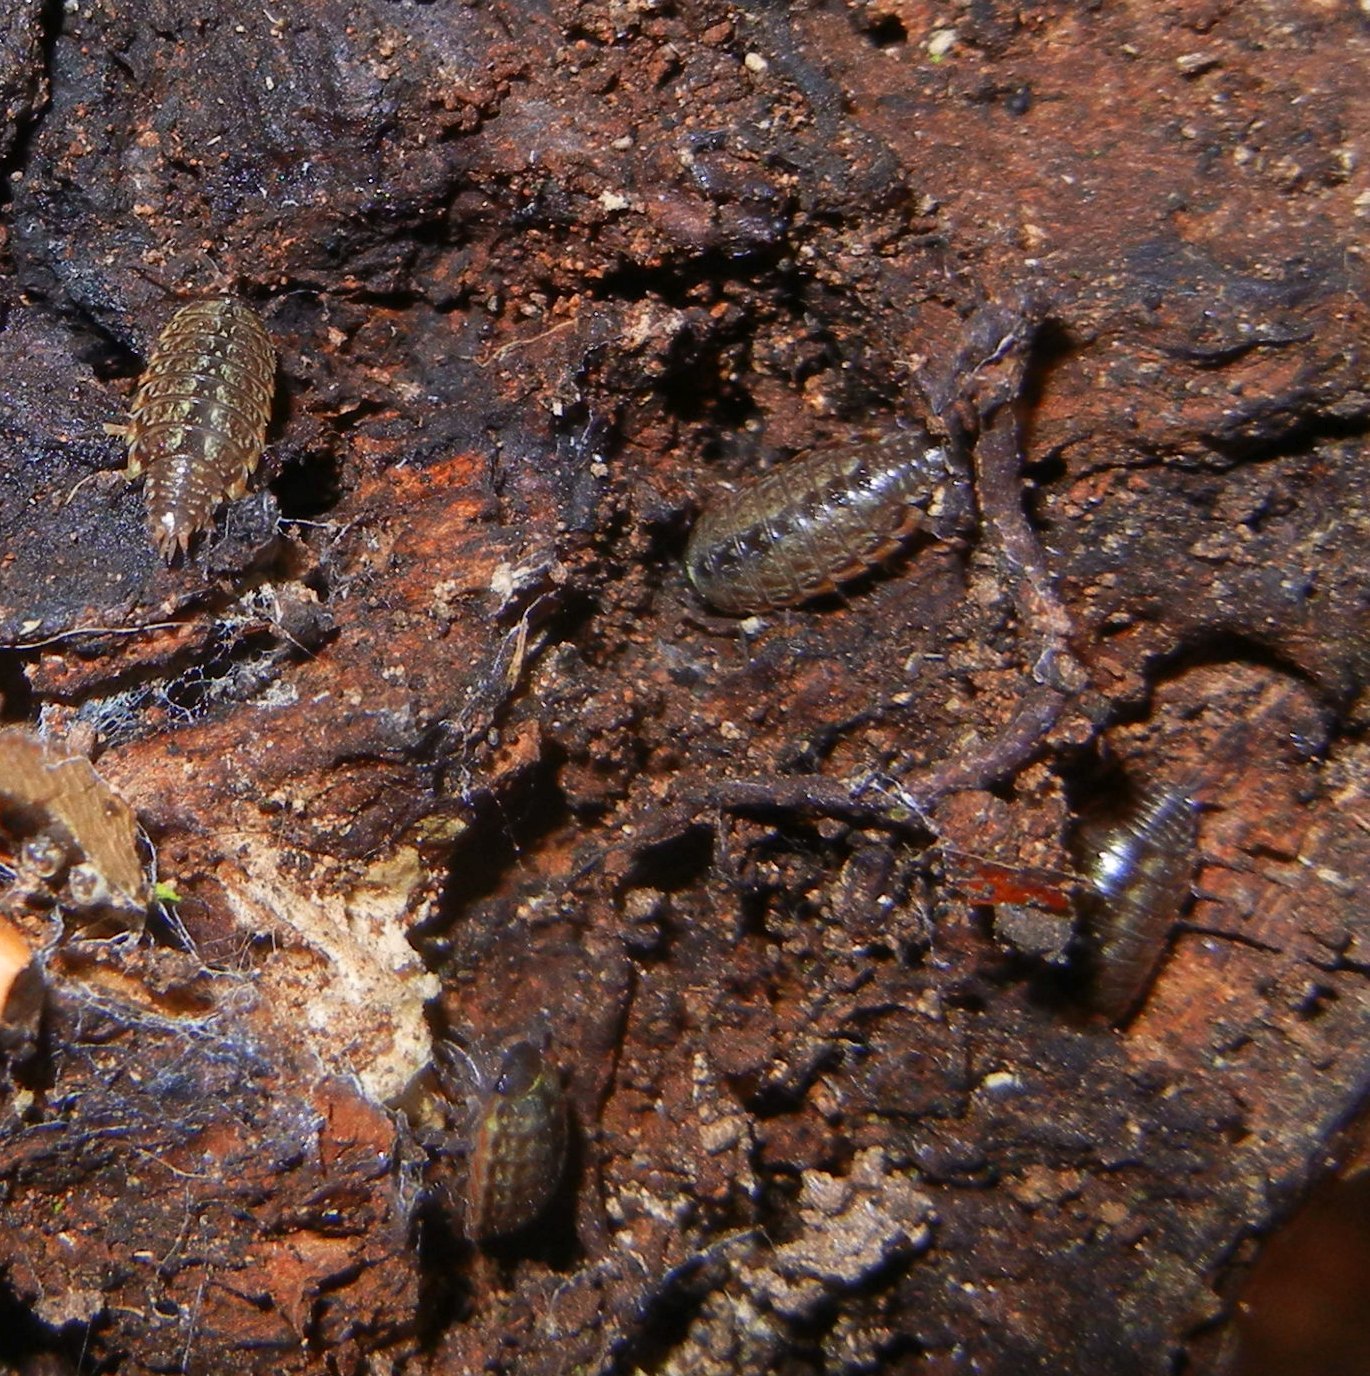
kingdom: Animalia
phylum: Arthropoda
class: Malacostraca
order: Isopoda
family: Philosciidae
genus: Philoscia
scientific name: Philoscia muscorum
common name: Common striped woodlouse
